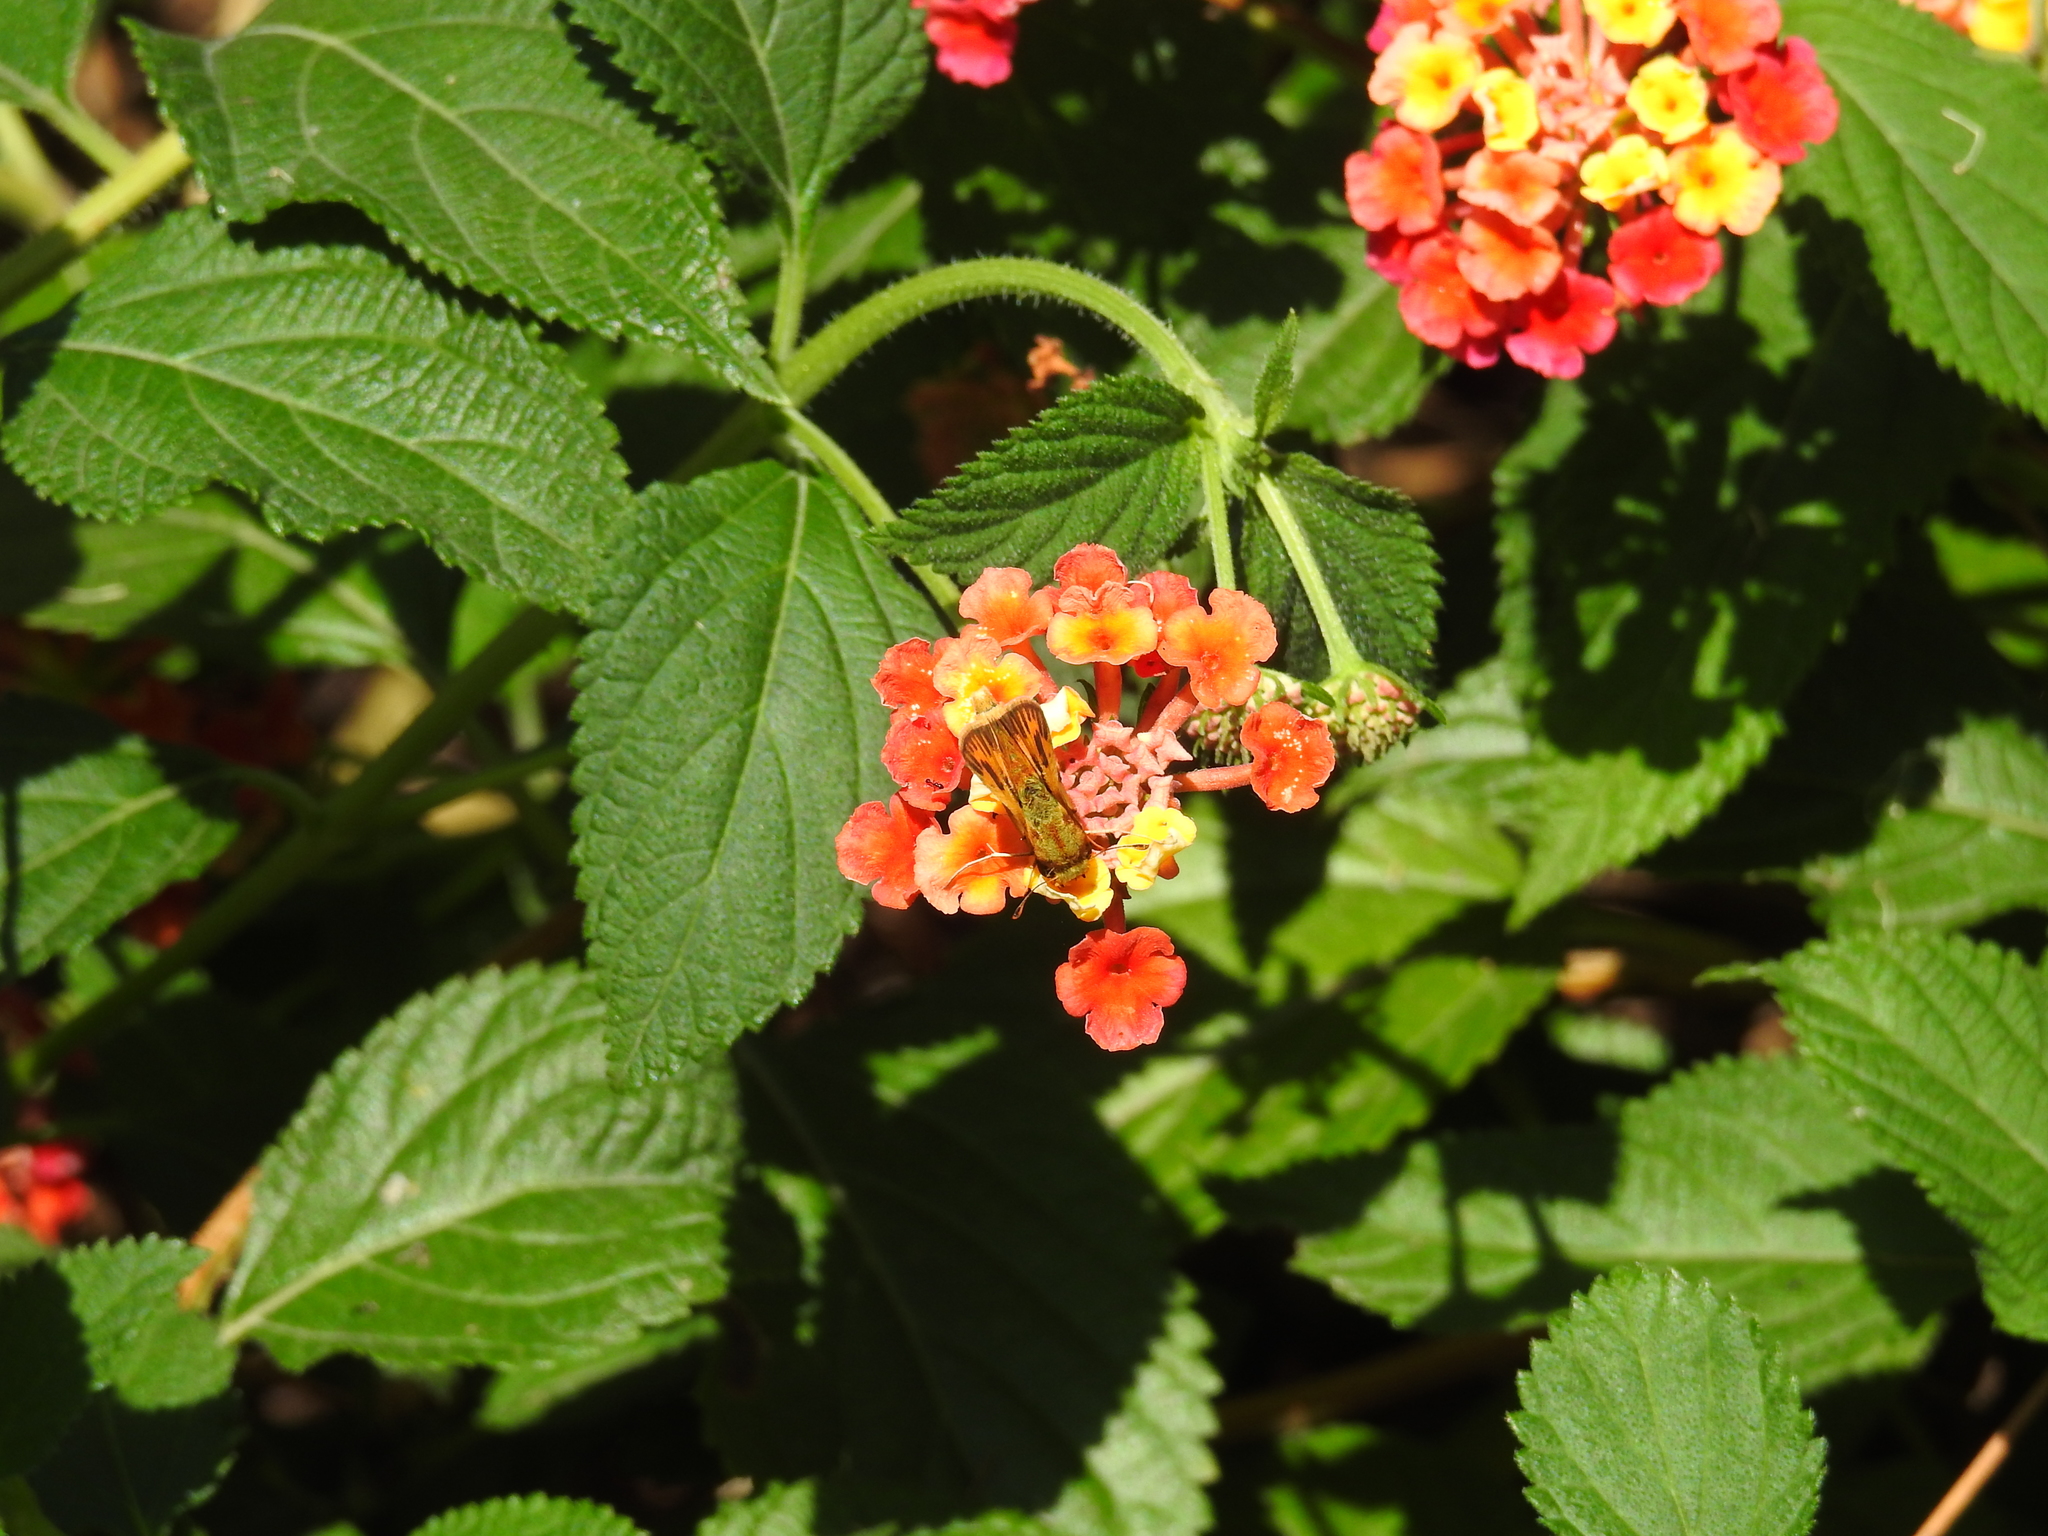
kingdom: Animalia
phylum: Arthropoda
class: Insecta
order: Lepidoptera
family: Hesperiidae
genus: Hylephila
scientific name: Hylephila phyleus
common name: Fiery skipper
